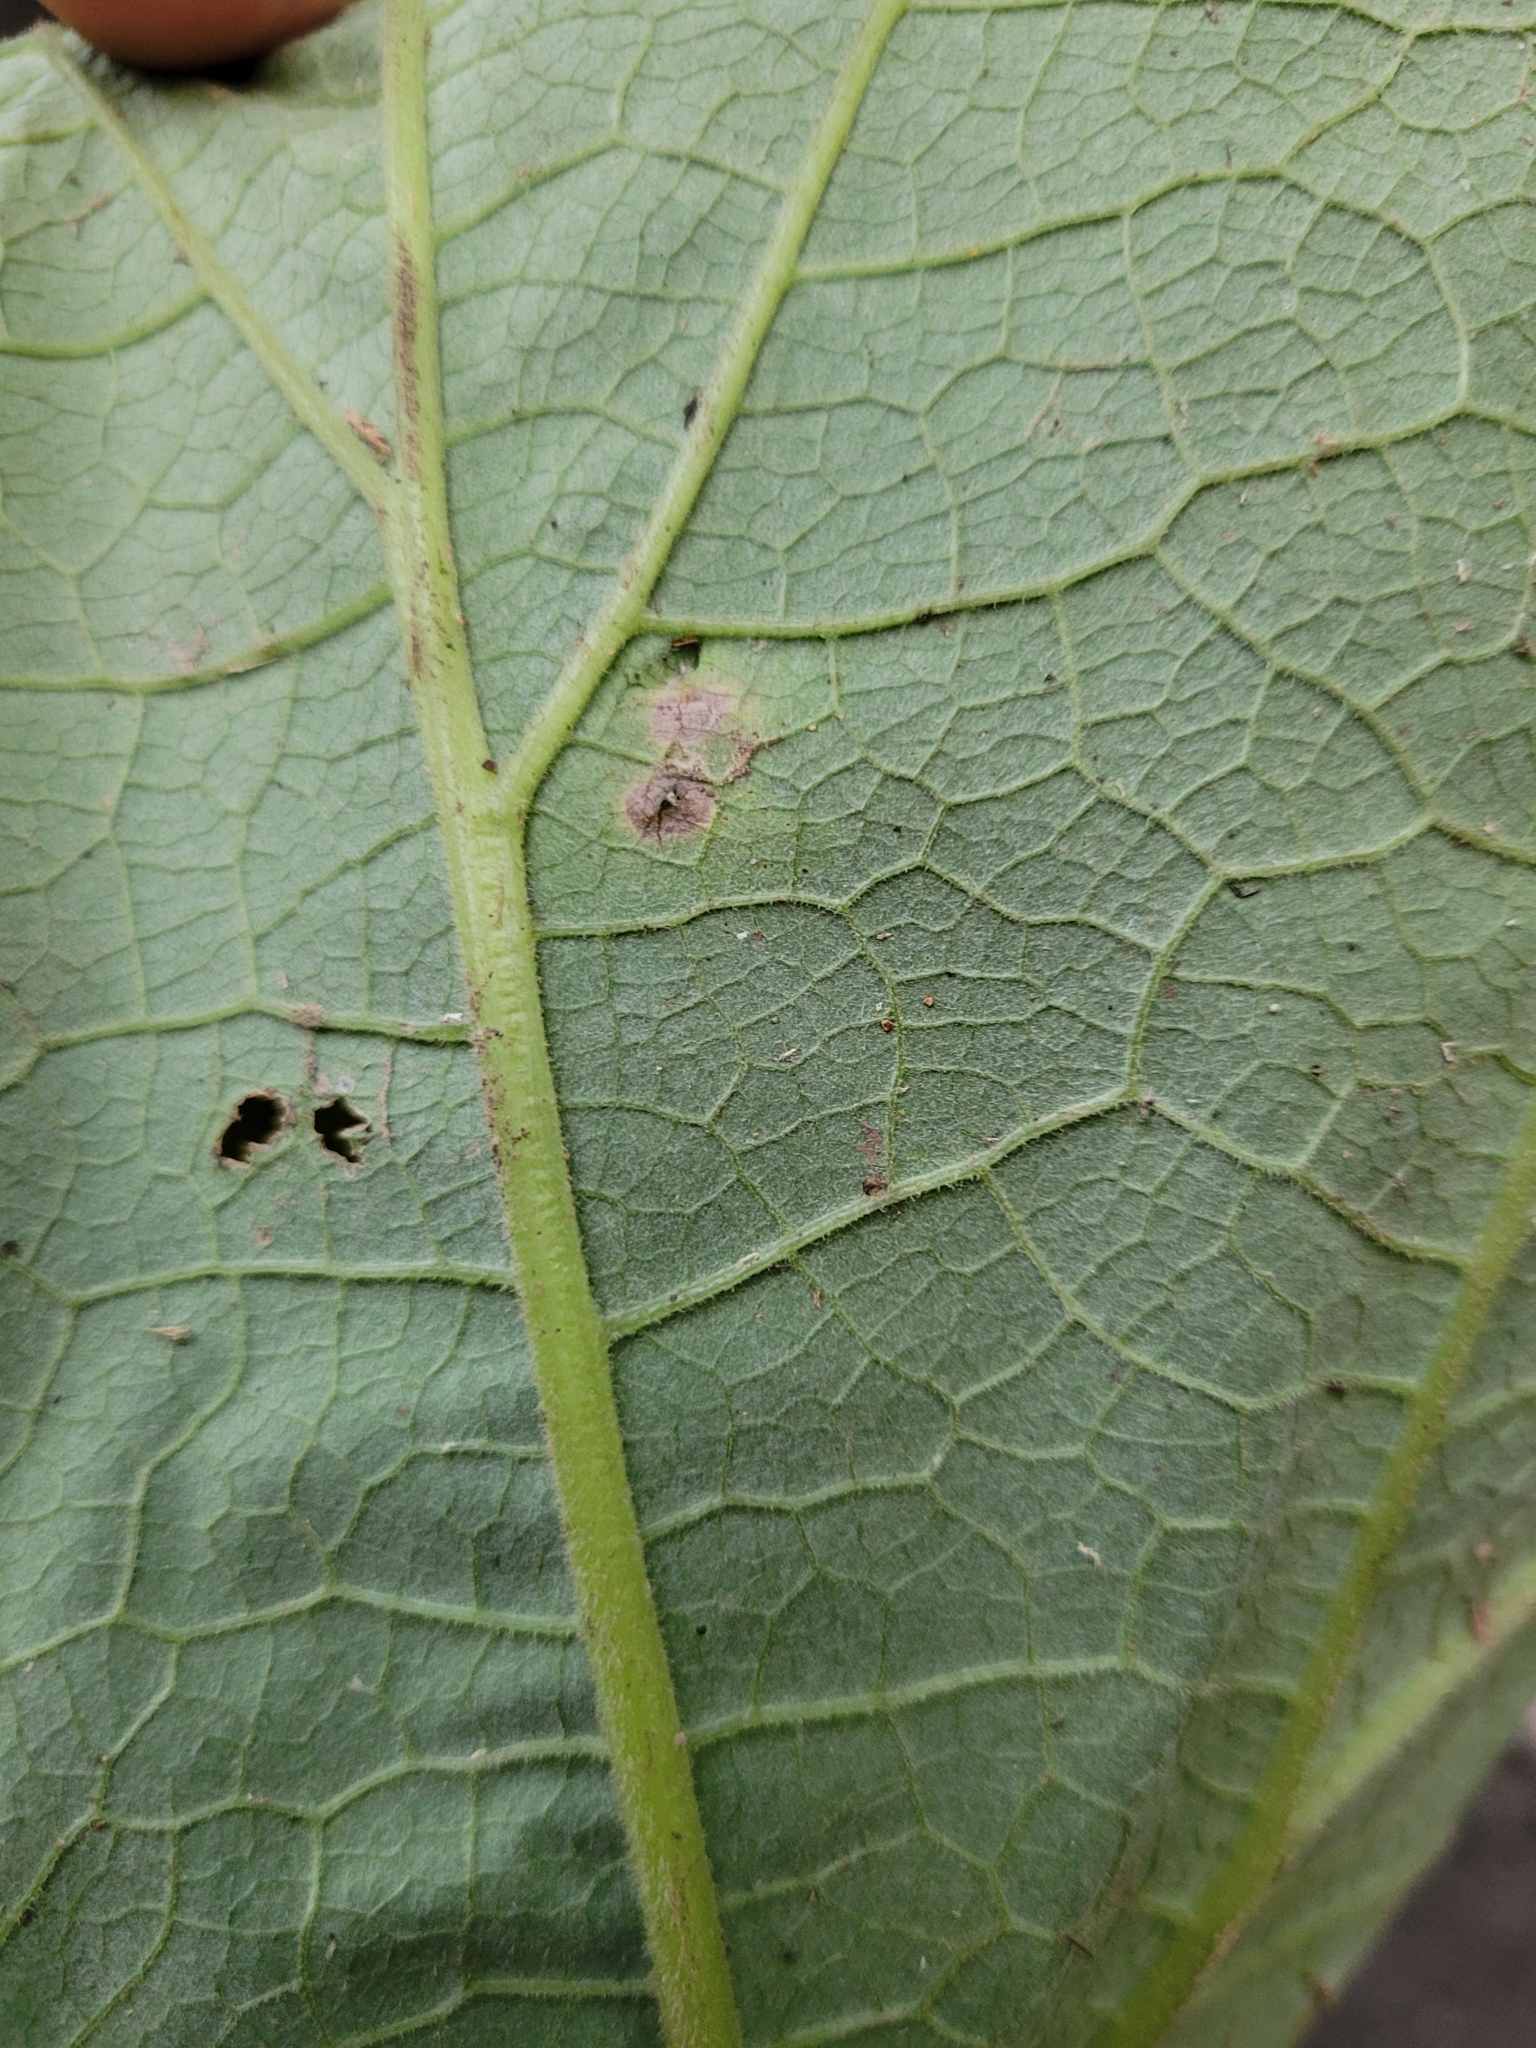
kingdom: Animalia
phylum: Arthropoda
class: Insecta
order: Diptera
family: Agromyzidae
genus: Calycomyza
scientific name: Calycomyza flavinotum
